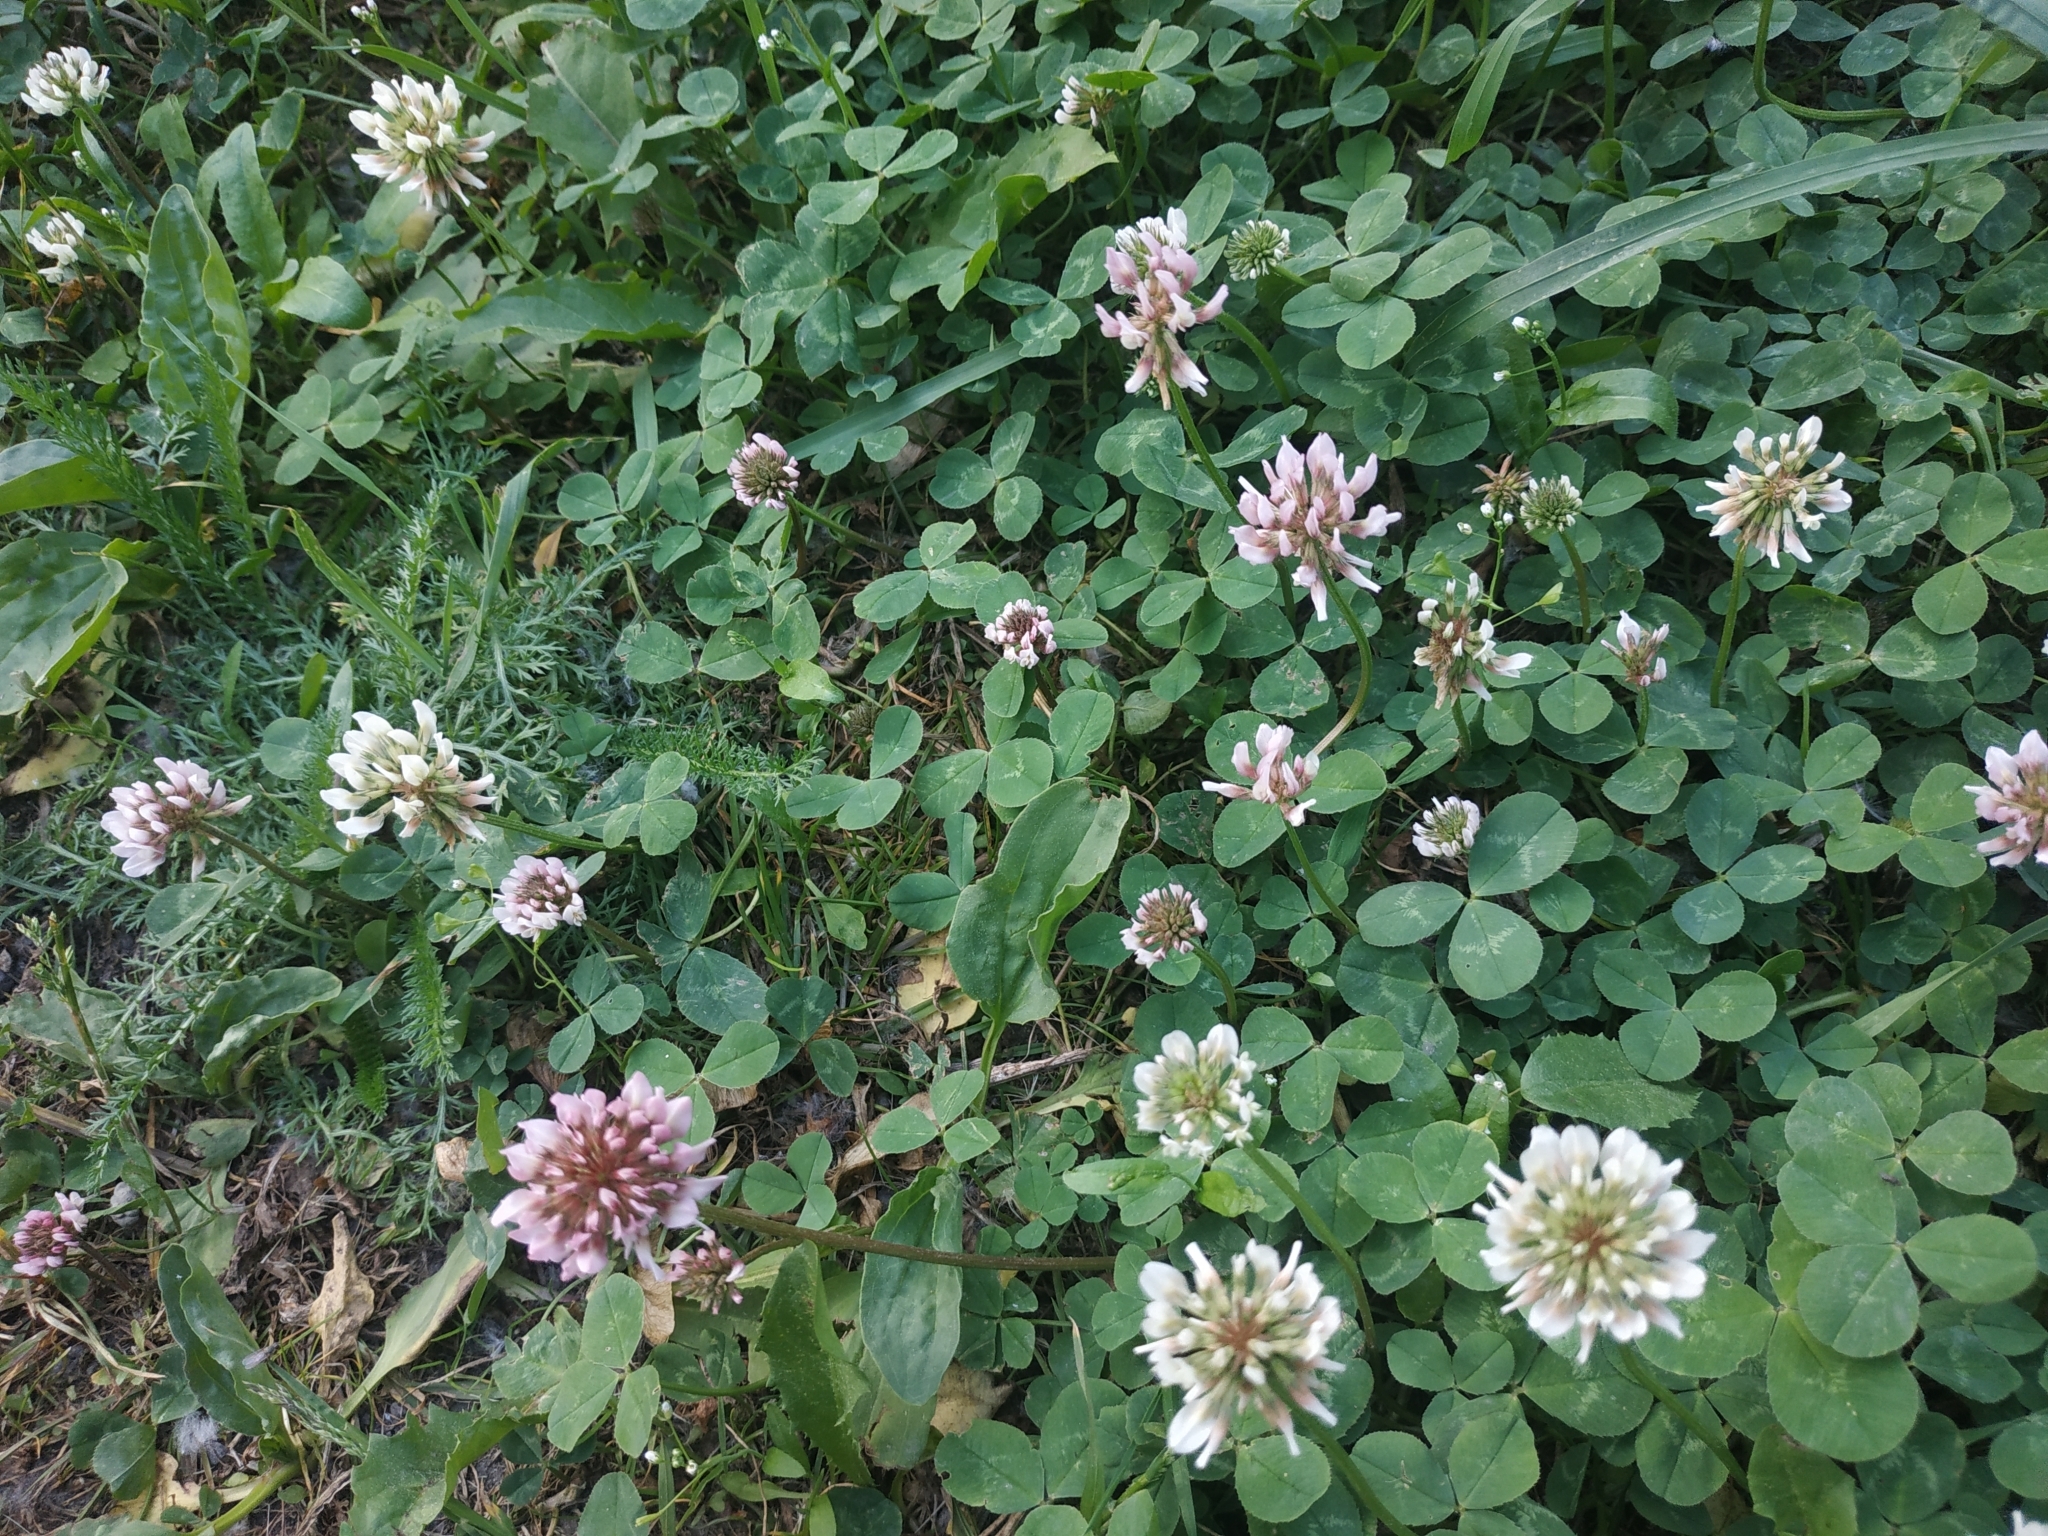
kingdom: Plantae
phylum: Tracheophyta
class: Magnoliopsida
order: Fabales
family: Fabaceae
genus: Trifolium
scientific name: Trifolium repens
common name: White clover
